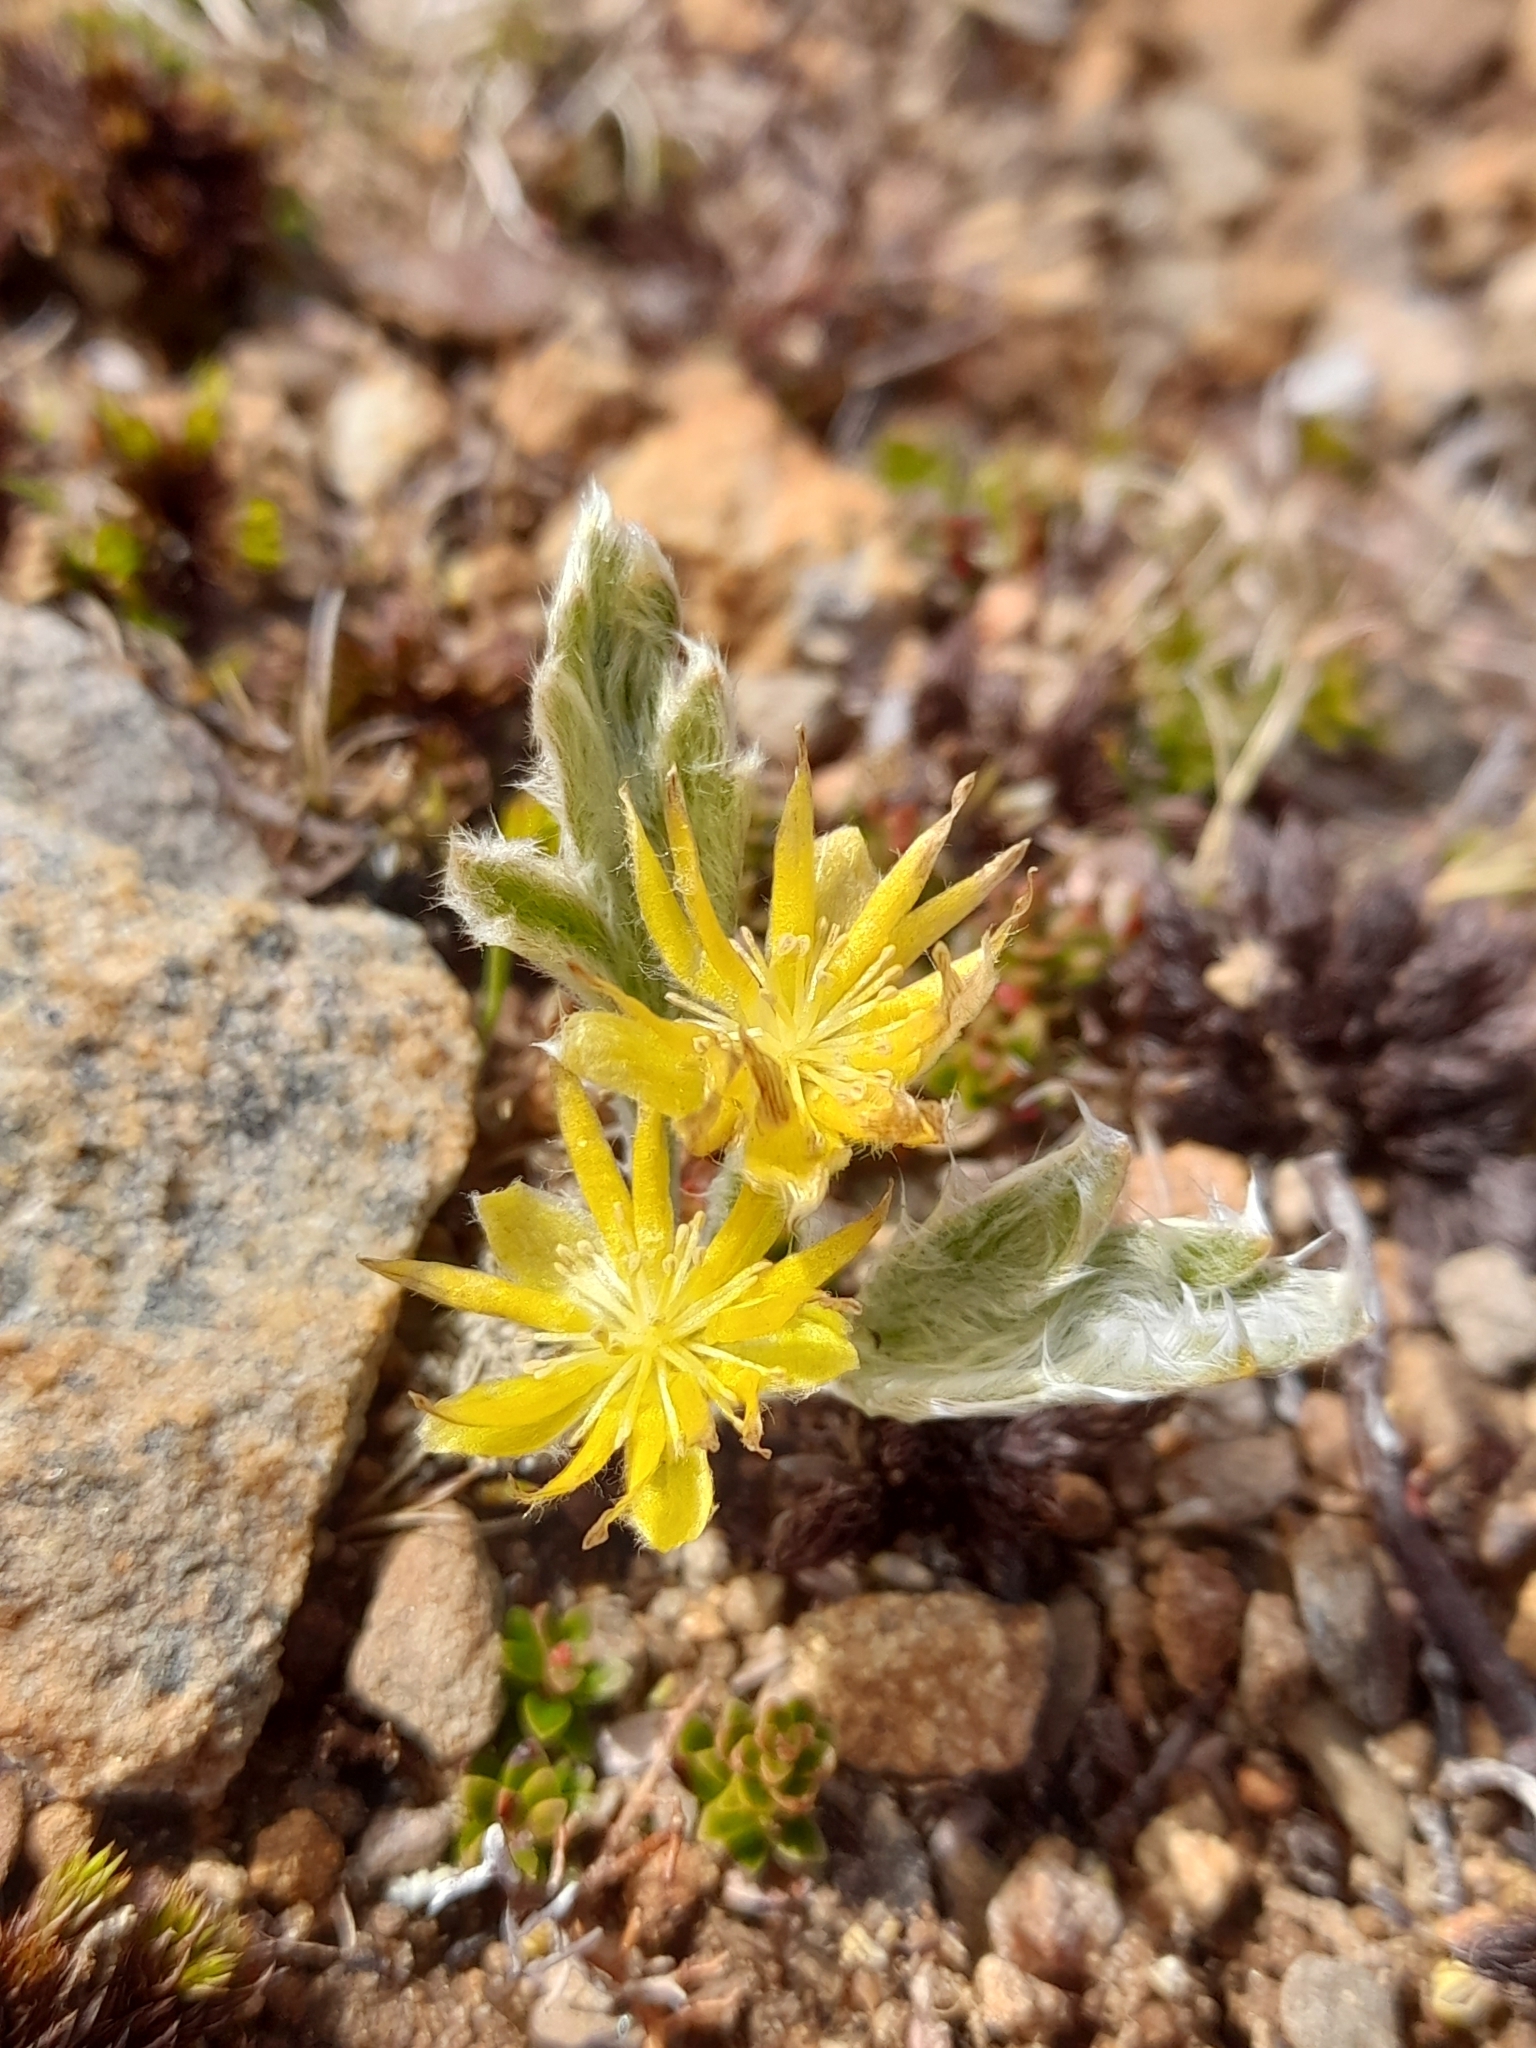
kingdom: Plantae
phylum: Tracheophyta
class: Magnoliopsida
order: Ranunculales
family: Ranunculaceae
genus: Hamadryas
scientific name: Hamadryas argentea
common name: Silvery buttercup
